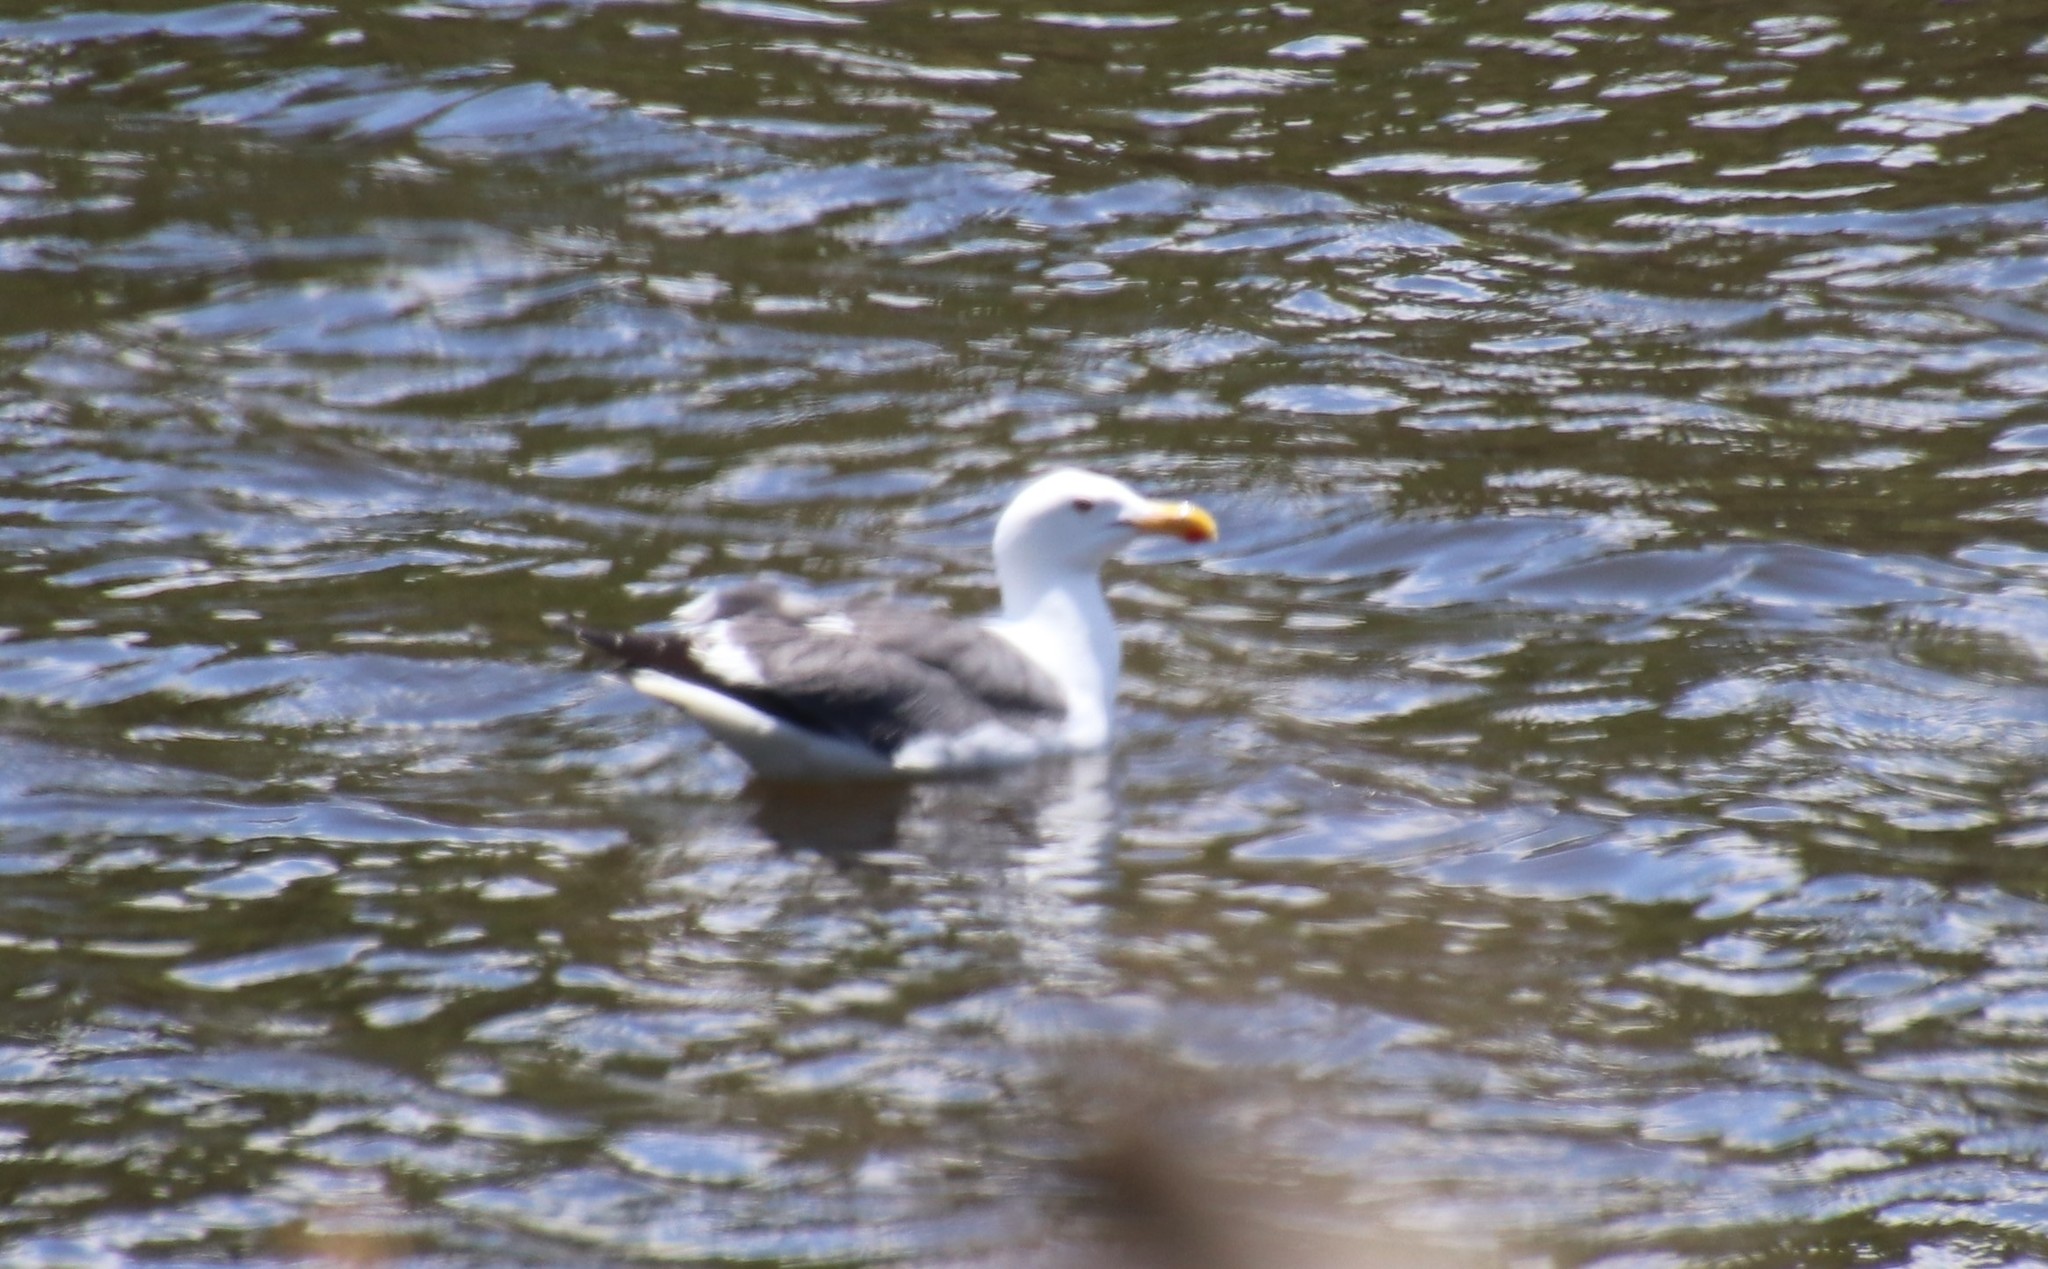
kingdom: Animalia
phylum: Chordata
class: Aves
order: Charadriiformes
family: Laridae
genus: Larus
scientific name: Larus occidentalis
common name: Western gull
